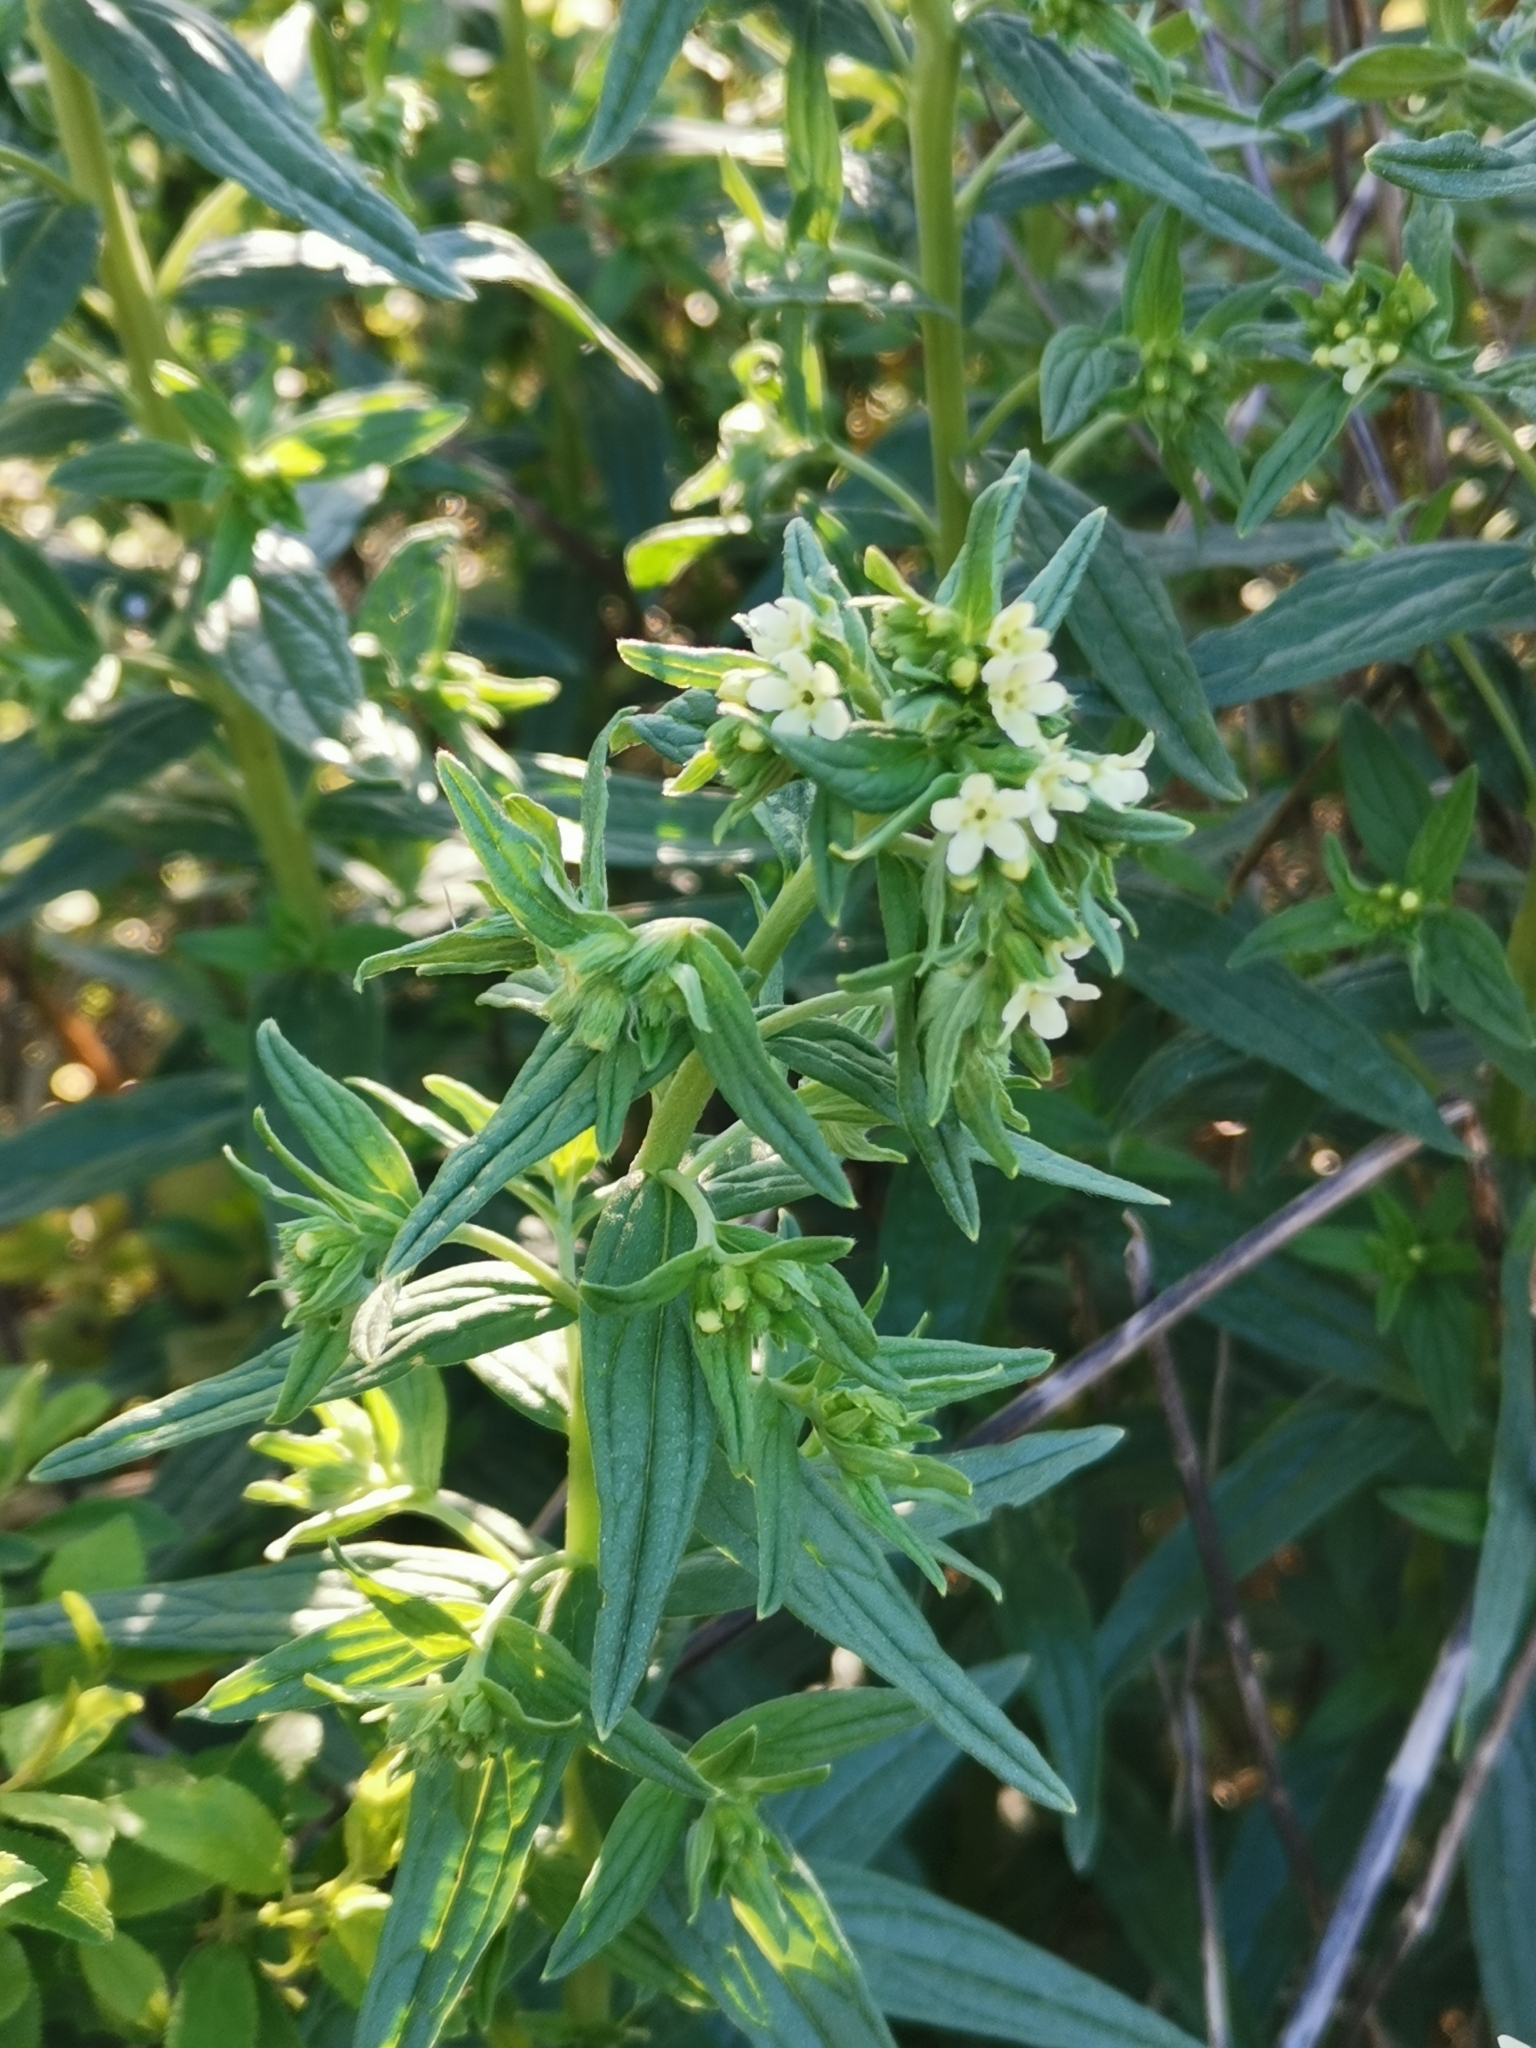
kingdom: Plantae
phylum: Tracheophyta
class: Magnoliopsida
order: Boraginales
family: Boraginaceae
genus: Lithospermum
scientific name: Lithospermum officinale
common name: Common gromwell
